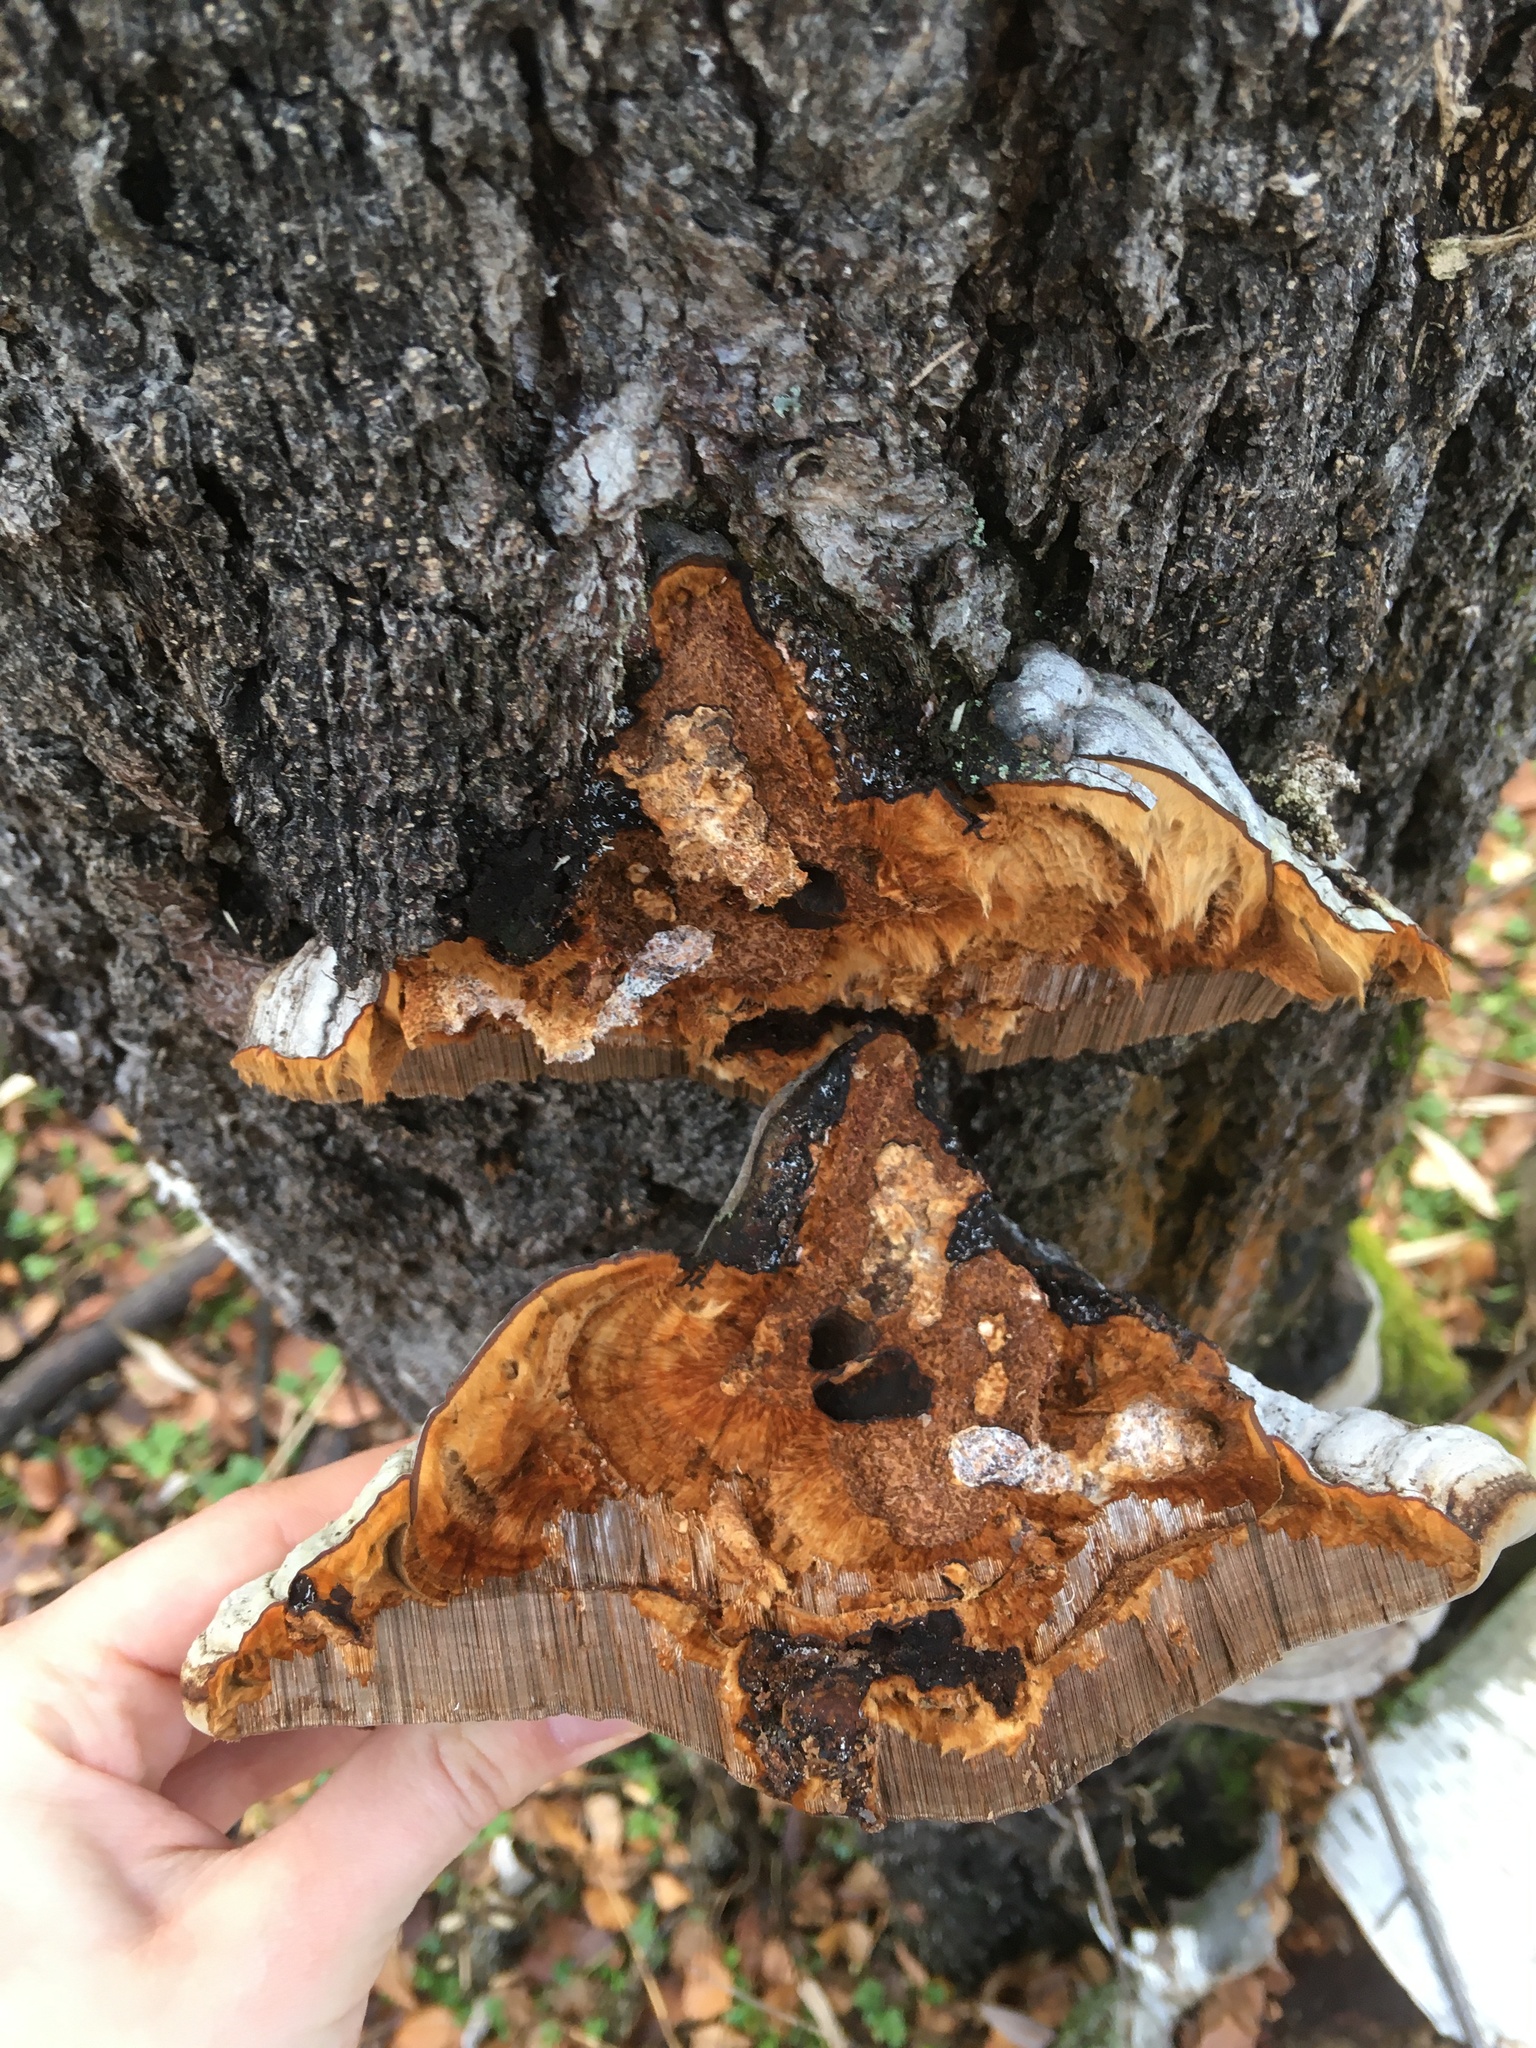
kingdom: Fungi
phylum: Basidiomycota
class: Agaricomycetes
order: Polyporales
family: Polyporaceae
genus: Fomes
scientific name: Fomes fomentarius
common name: Hoof fungus
